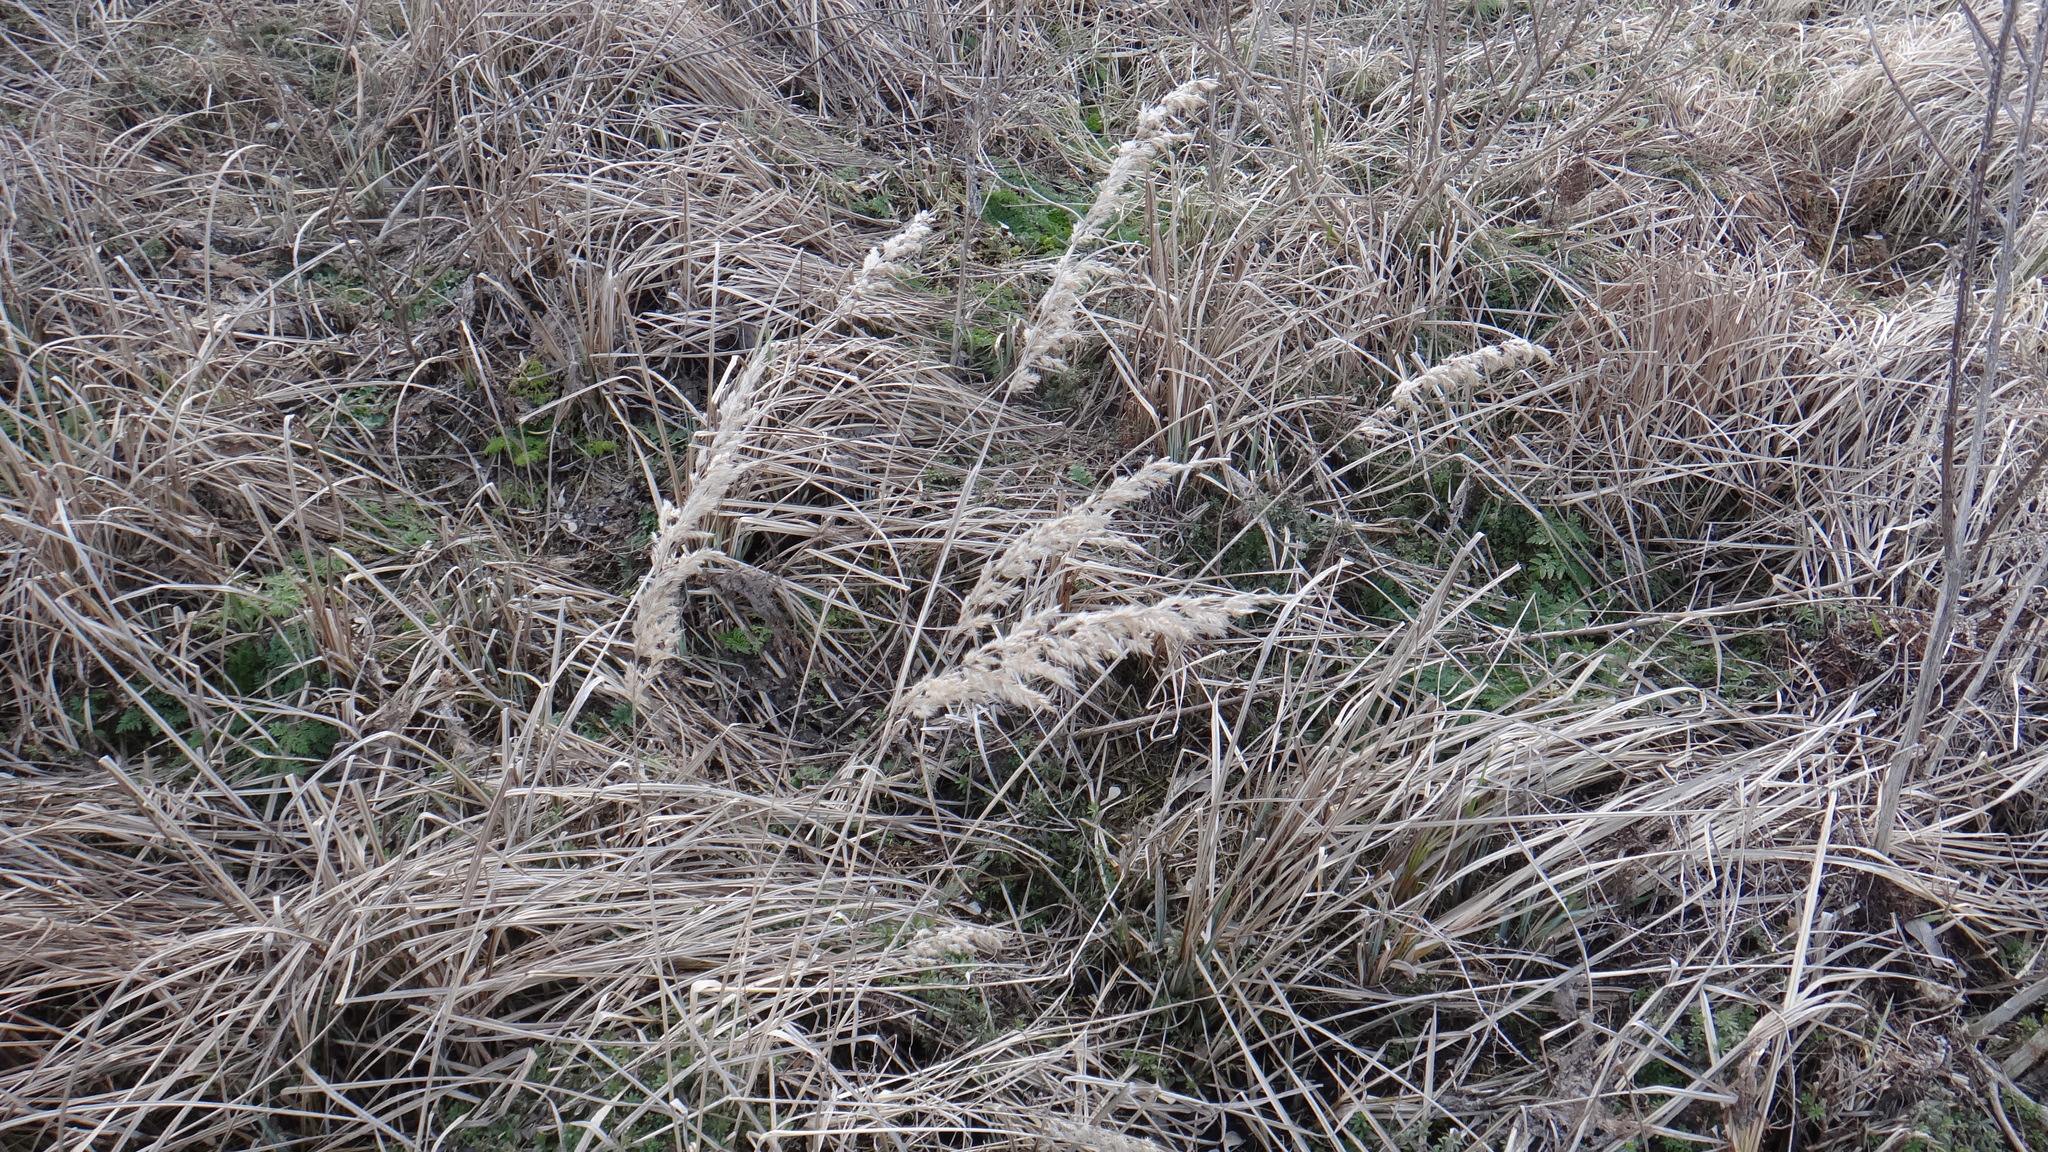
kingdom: Plantae
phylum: Tracheophyta
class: Liliopsida
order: Poales
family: Poaceae
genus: Calamagrostis
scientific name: Calamagrostis epigejos
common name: Wood small-reed
